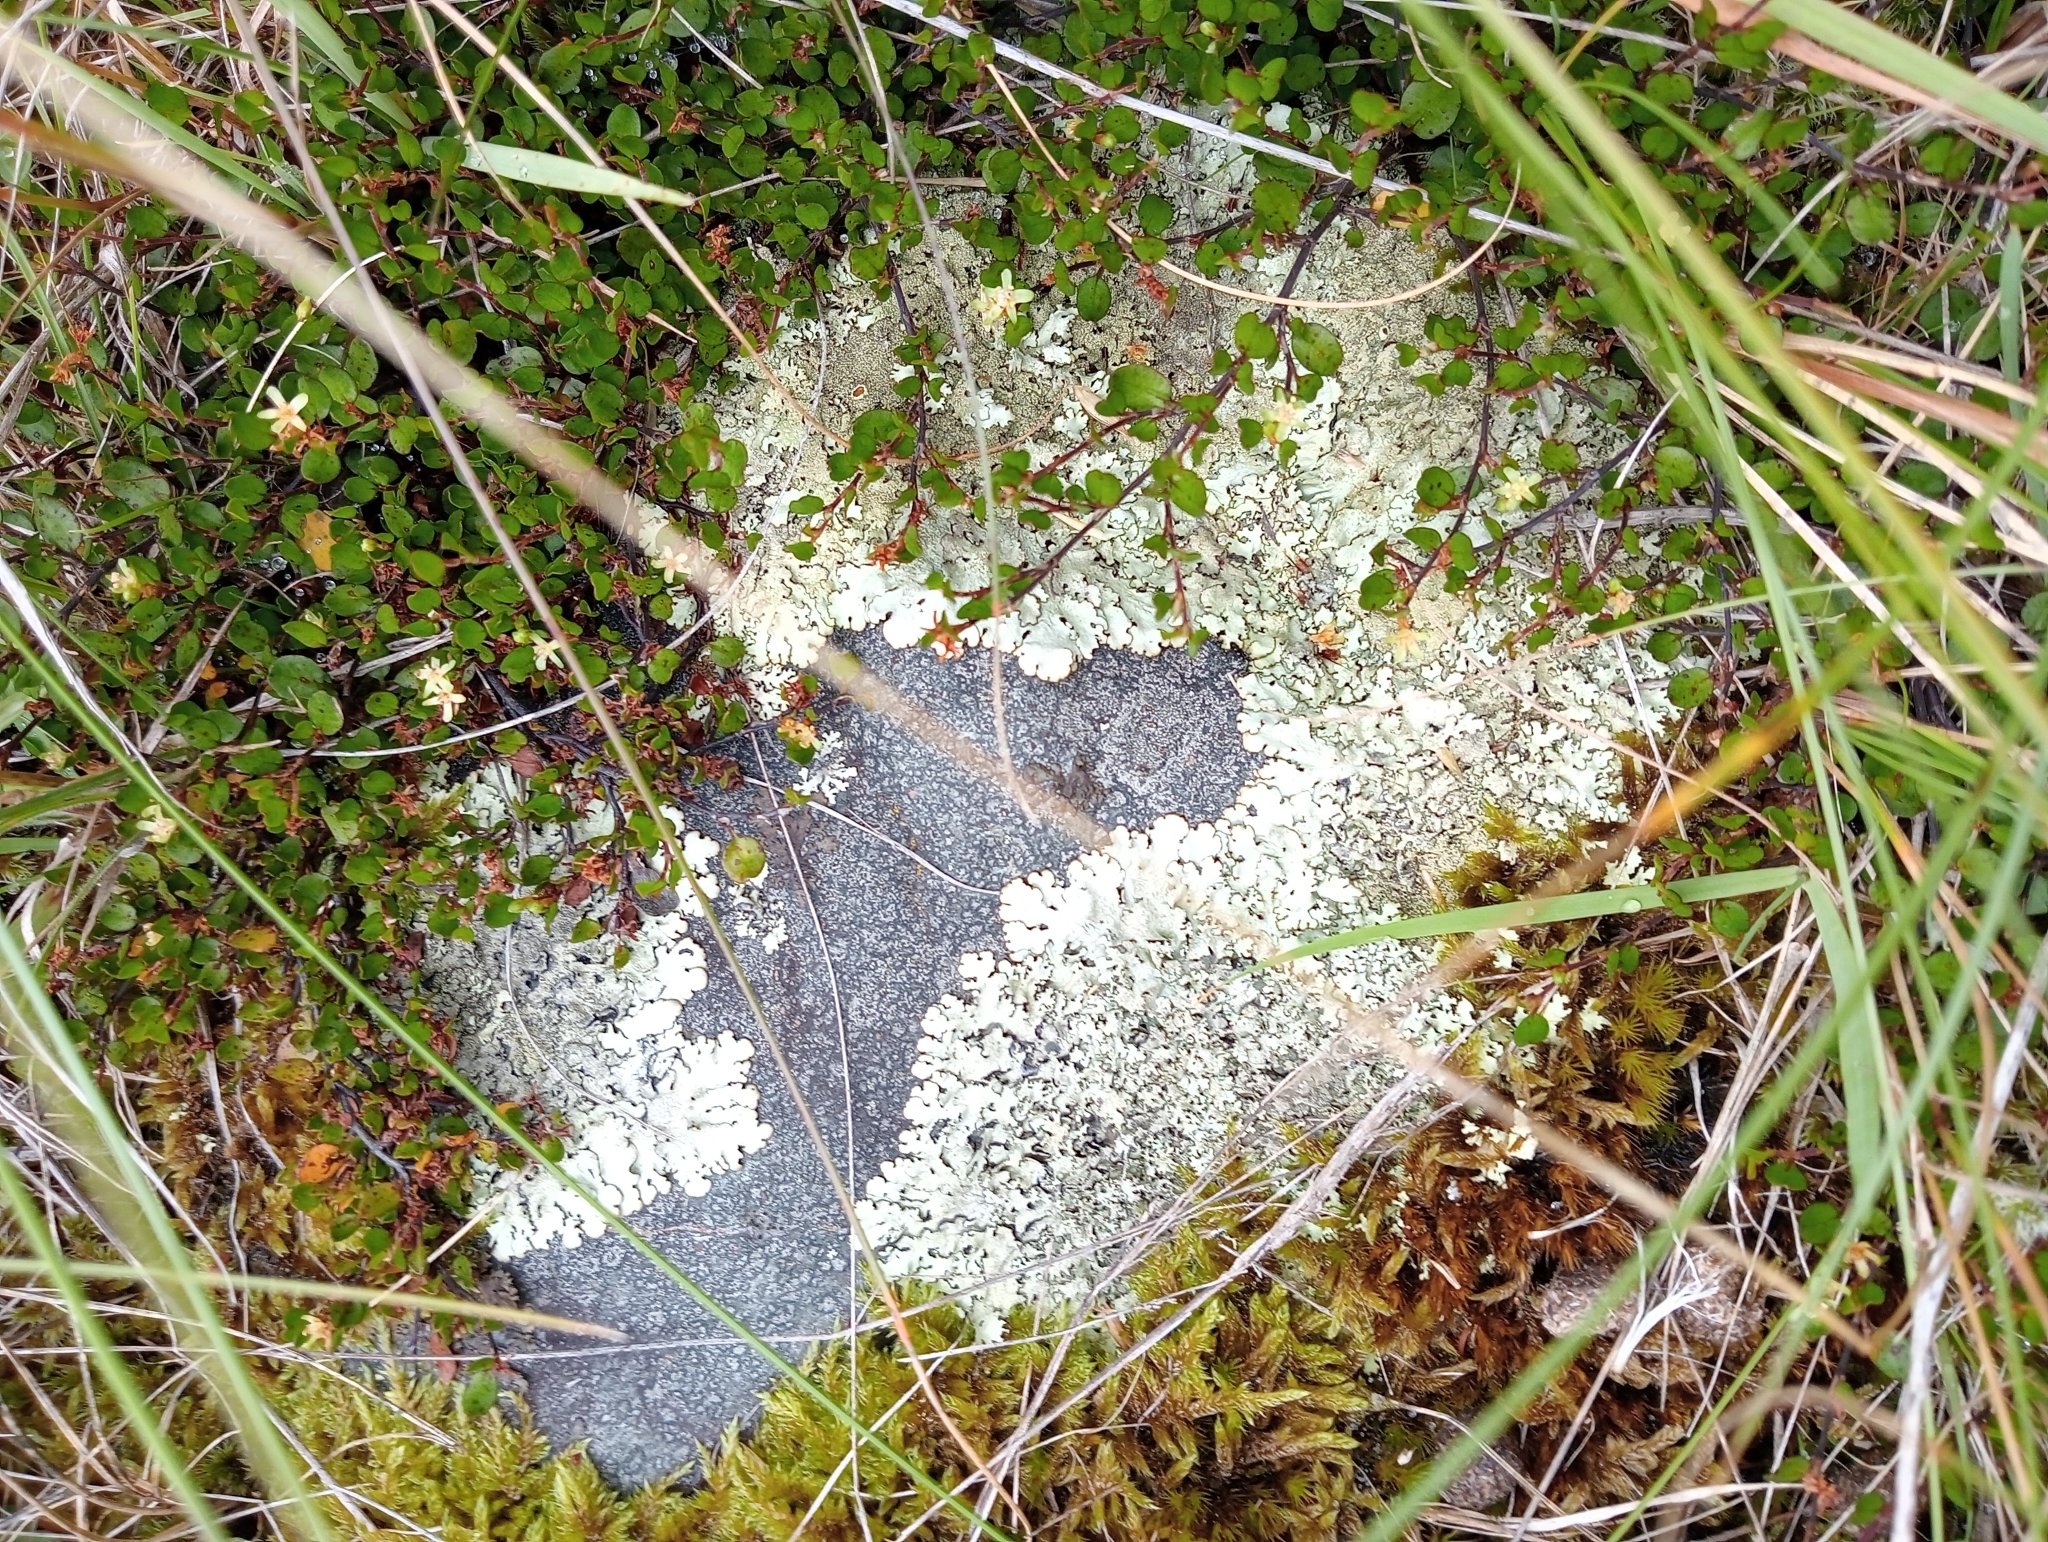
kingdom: Plantae
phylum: Tracheophyta
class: Magnoliopsida
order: Caryophyllales
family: Polygonaceae
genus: Muehlenbeckia
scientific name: Muehlenbeckia axillaris
